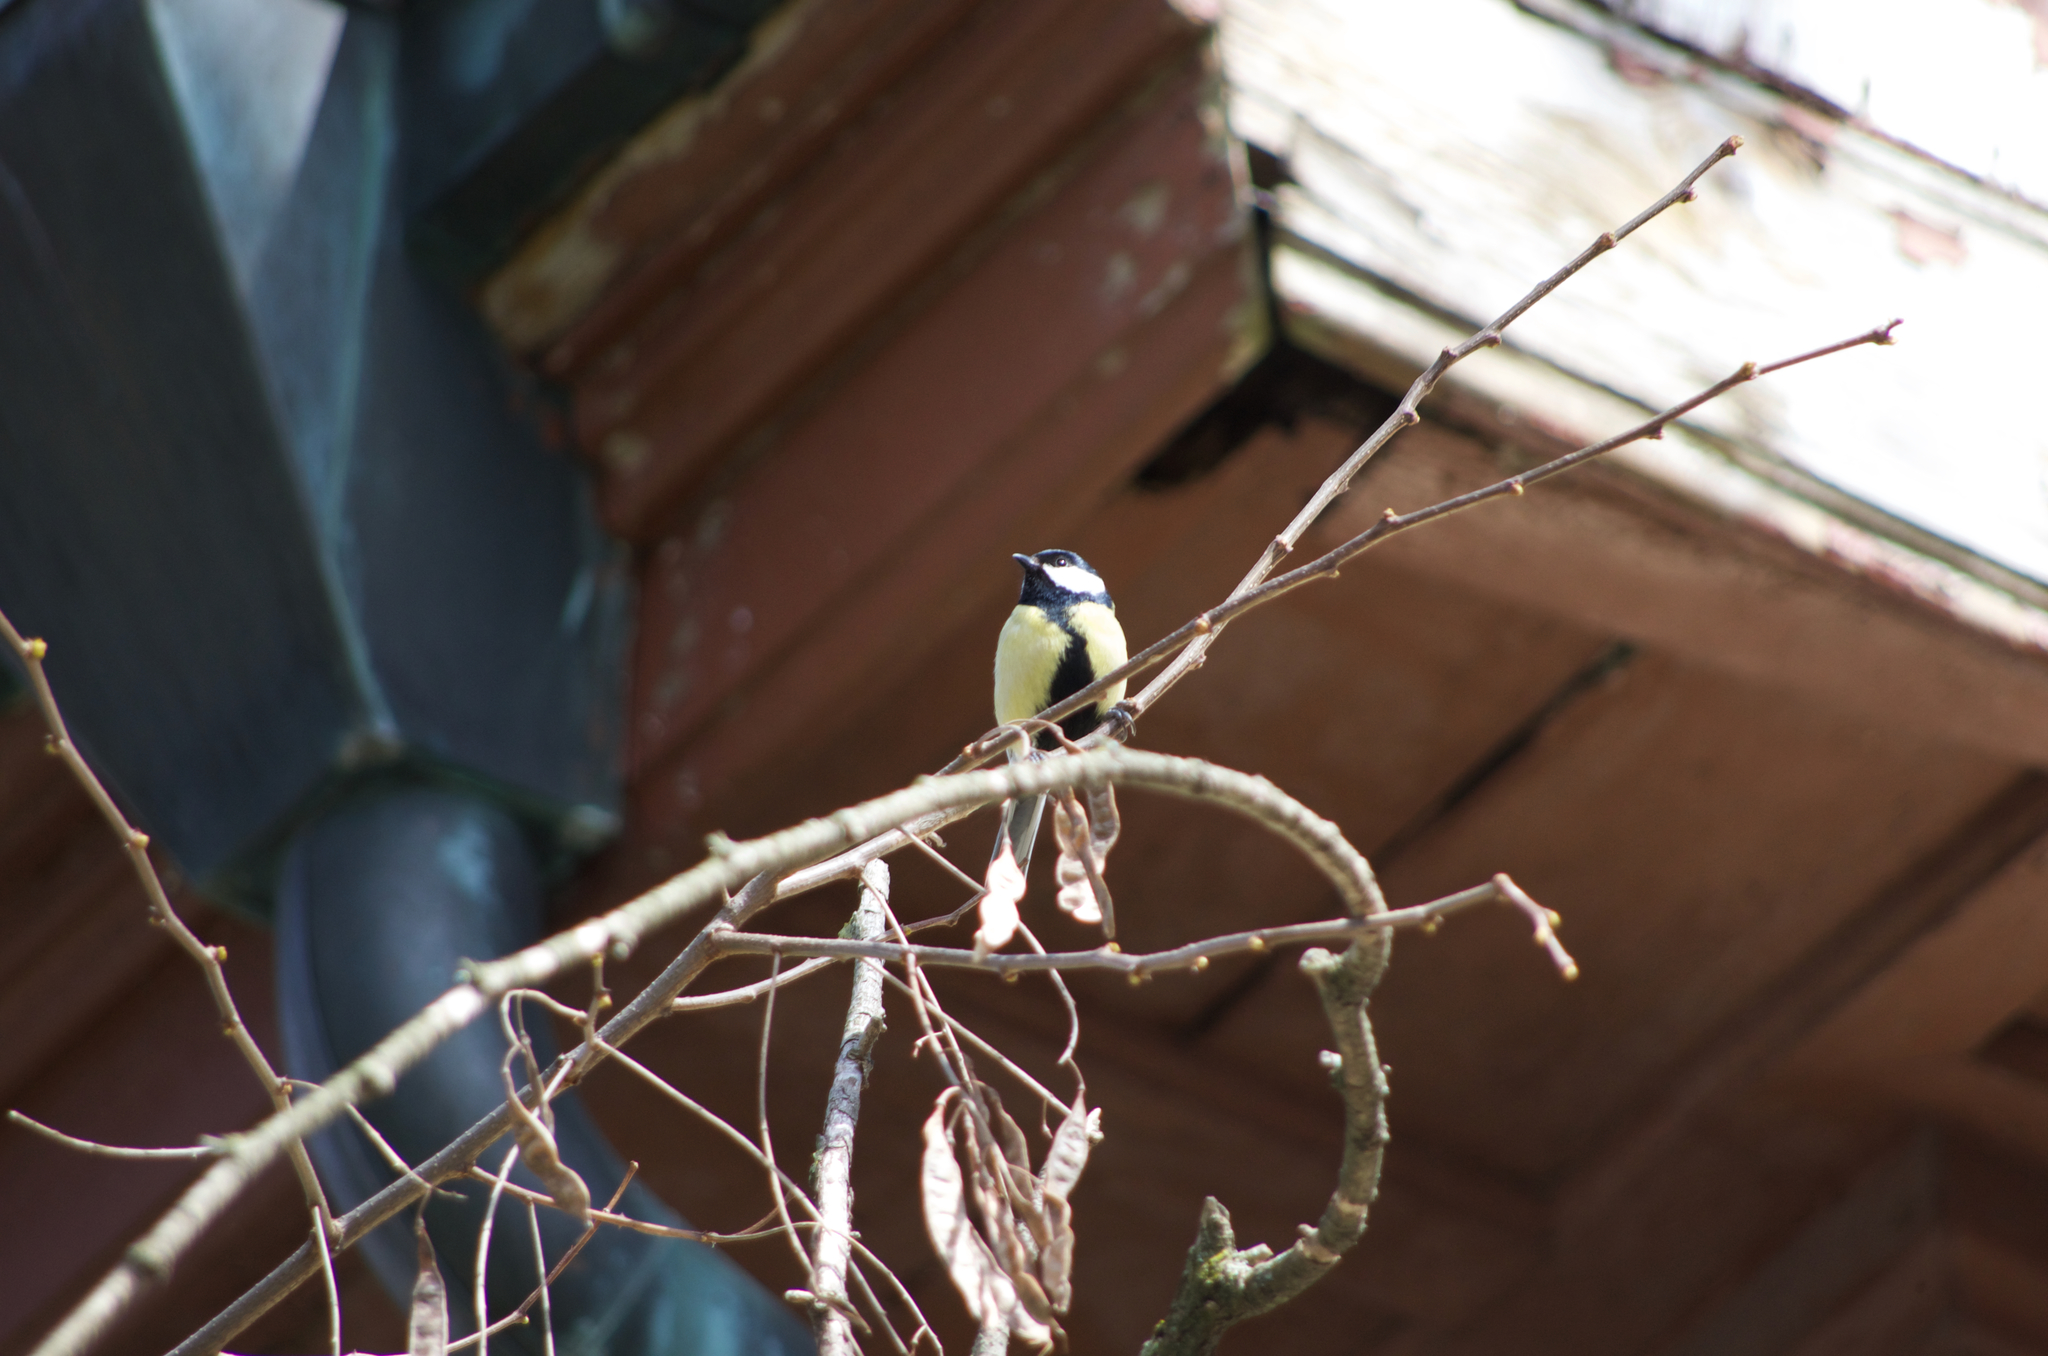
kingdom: Animalia
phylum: Chordata
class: Aves
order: Passeriformes
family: Paridae
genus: Parus
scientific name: Parus major
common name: Great tit
